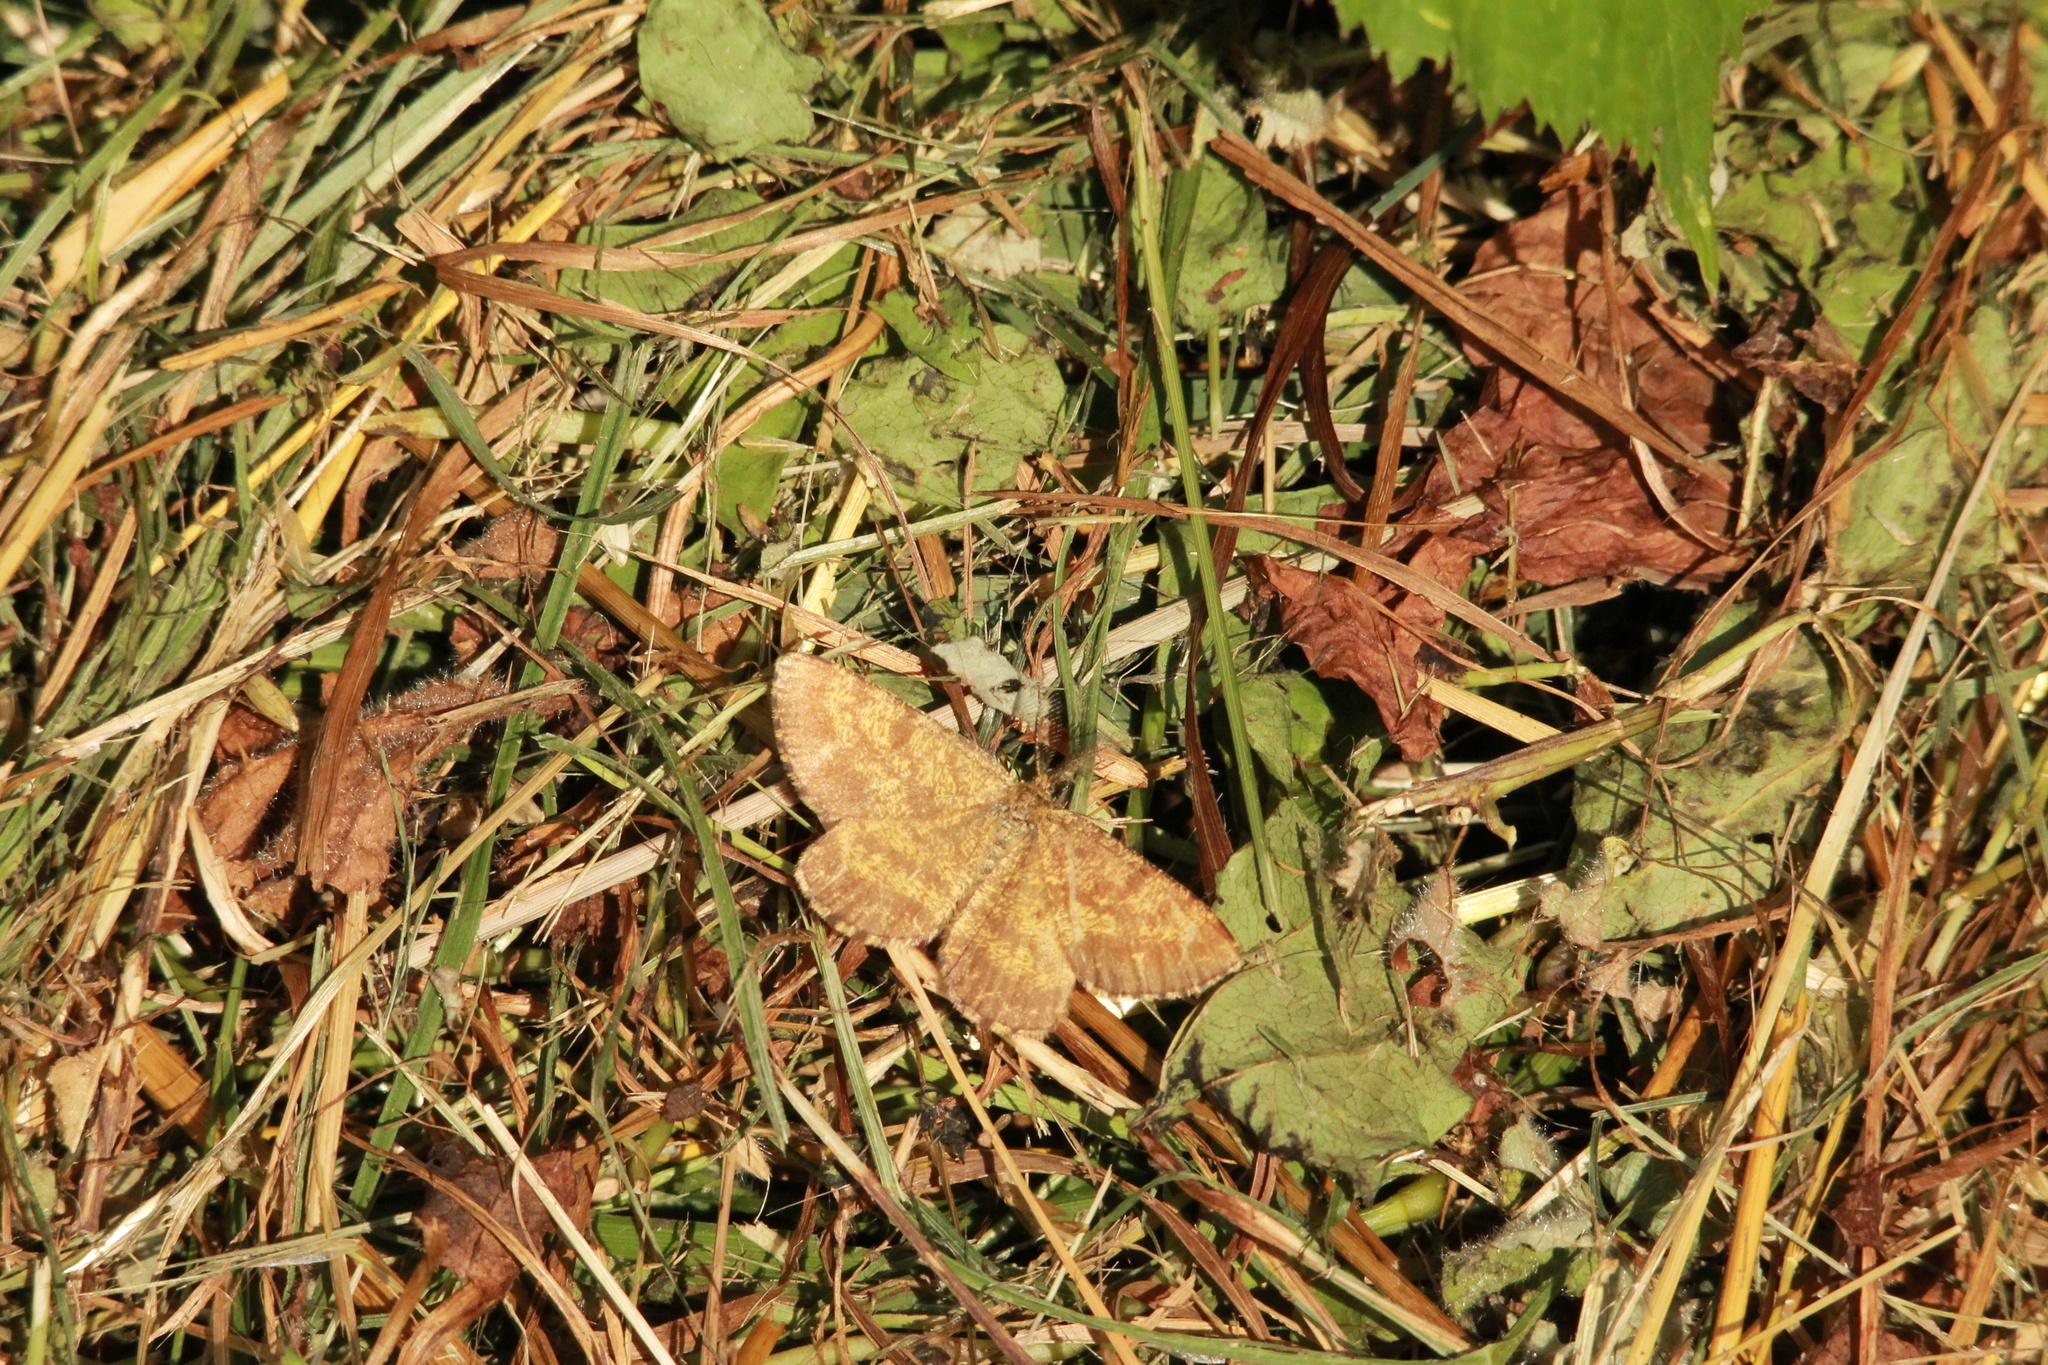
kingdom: Animalia
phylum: Arthropoda
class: Insecta
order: Lepidoptera
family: Geometridae
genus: Ematurga
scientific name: Ematurga atomaria
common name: Common heath
